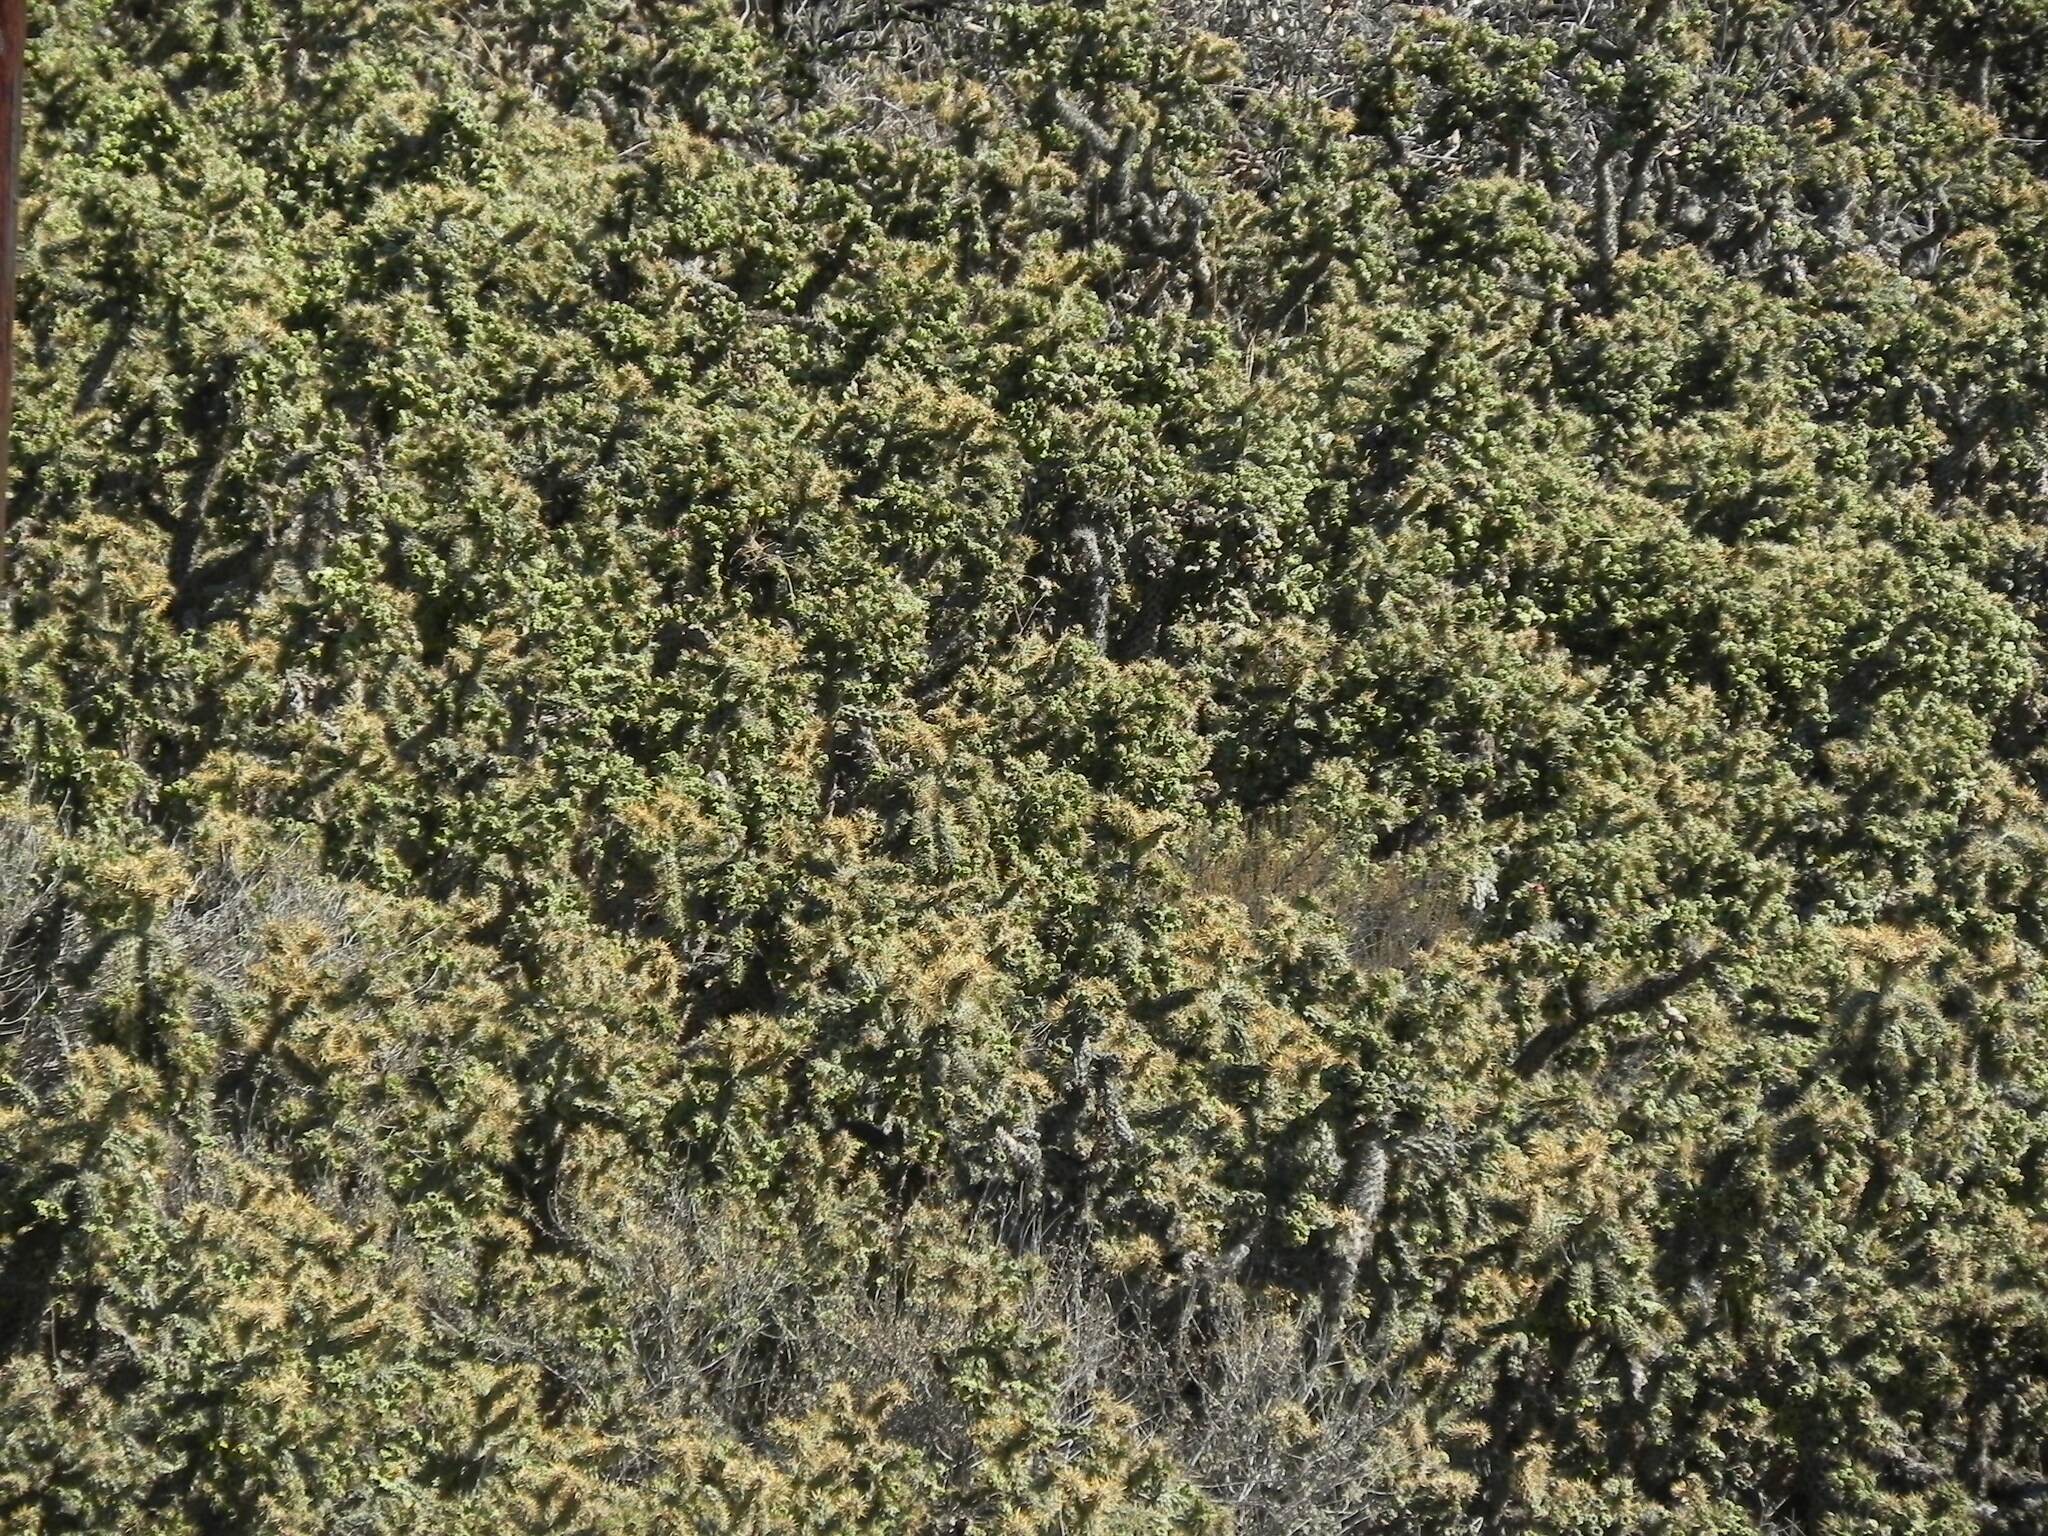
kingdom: Plantae
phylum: Tracheophyta
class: Magnoliopsida
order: Caryophyllales
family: Cactaceae
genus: Cylindropuntia
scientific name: Cylindropuntia prolifera
